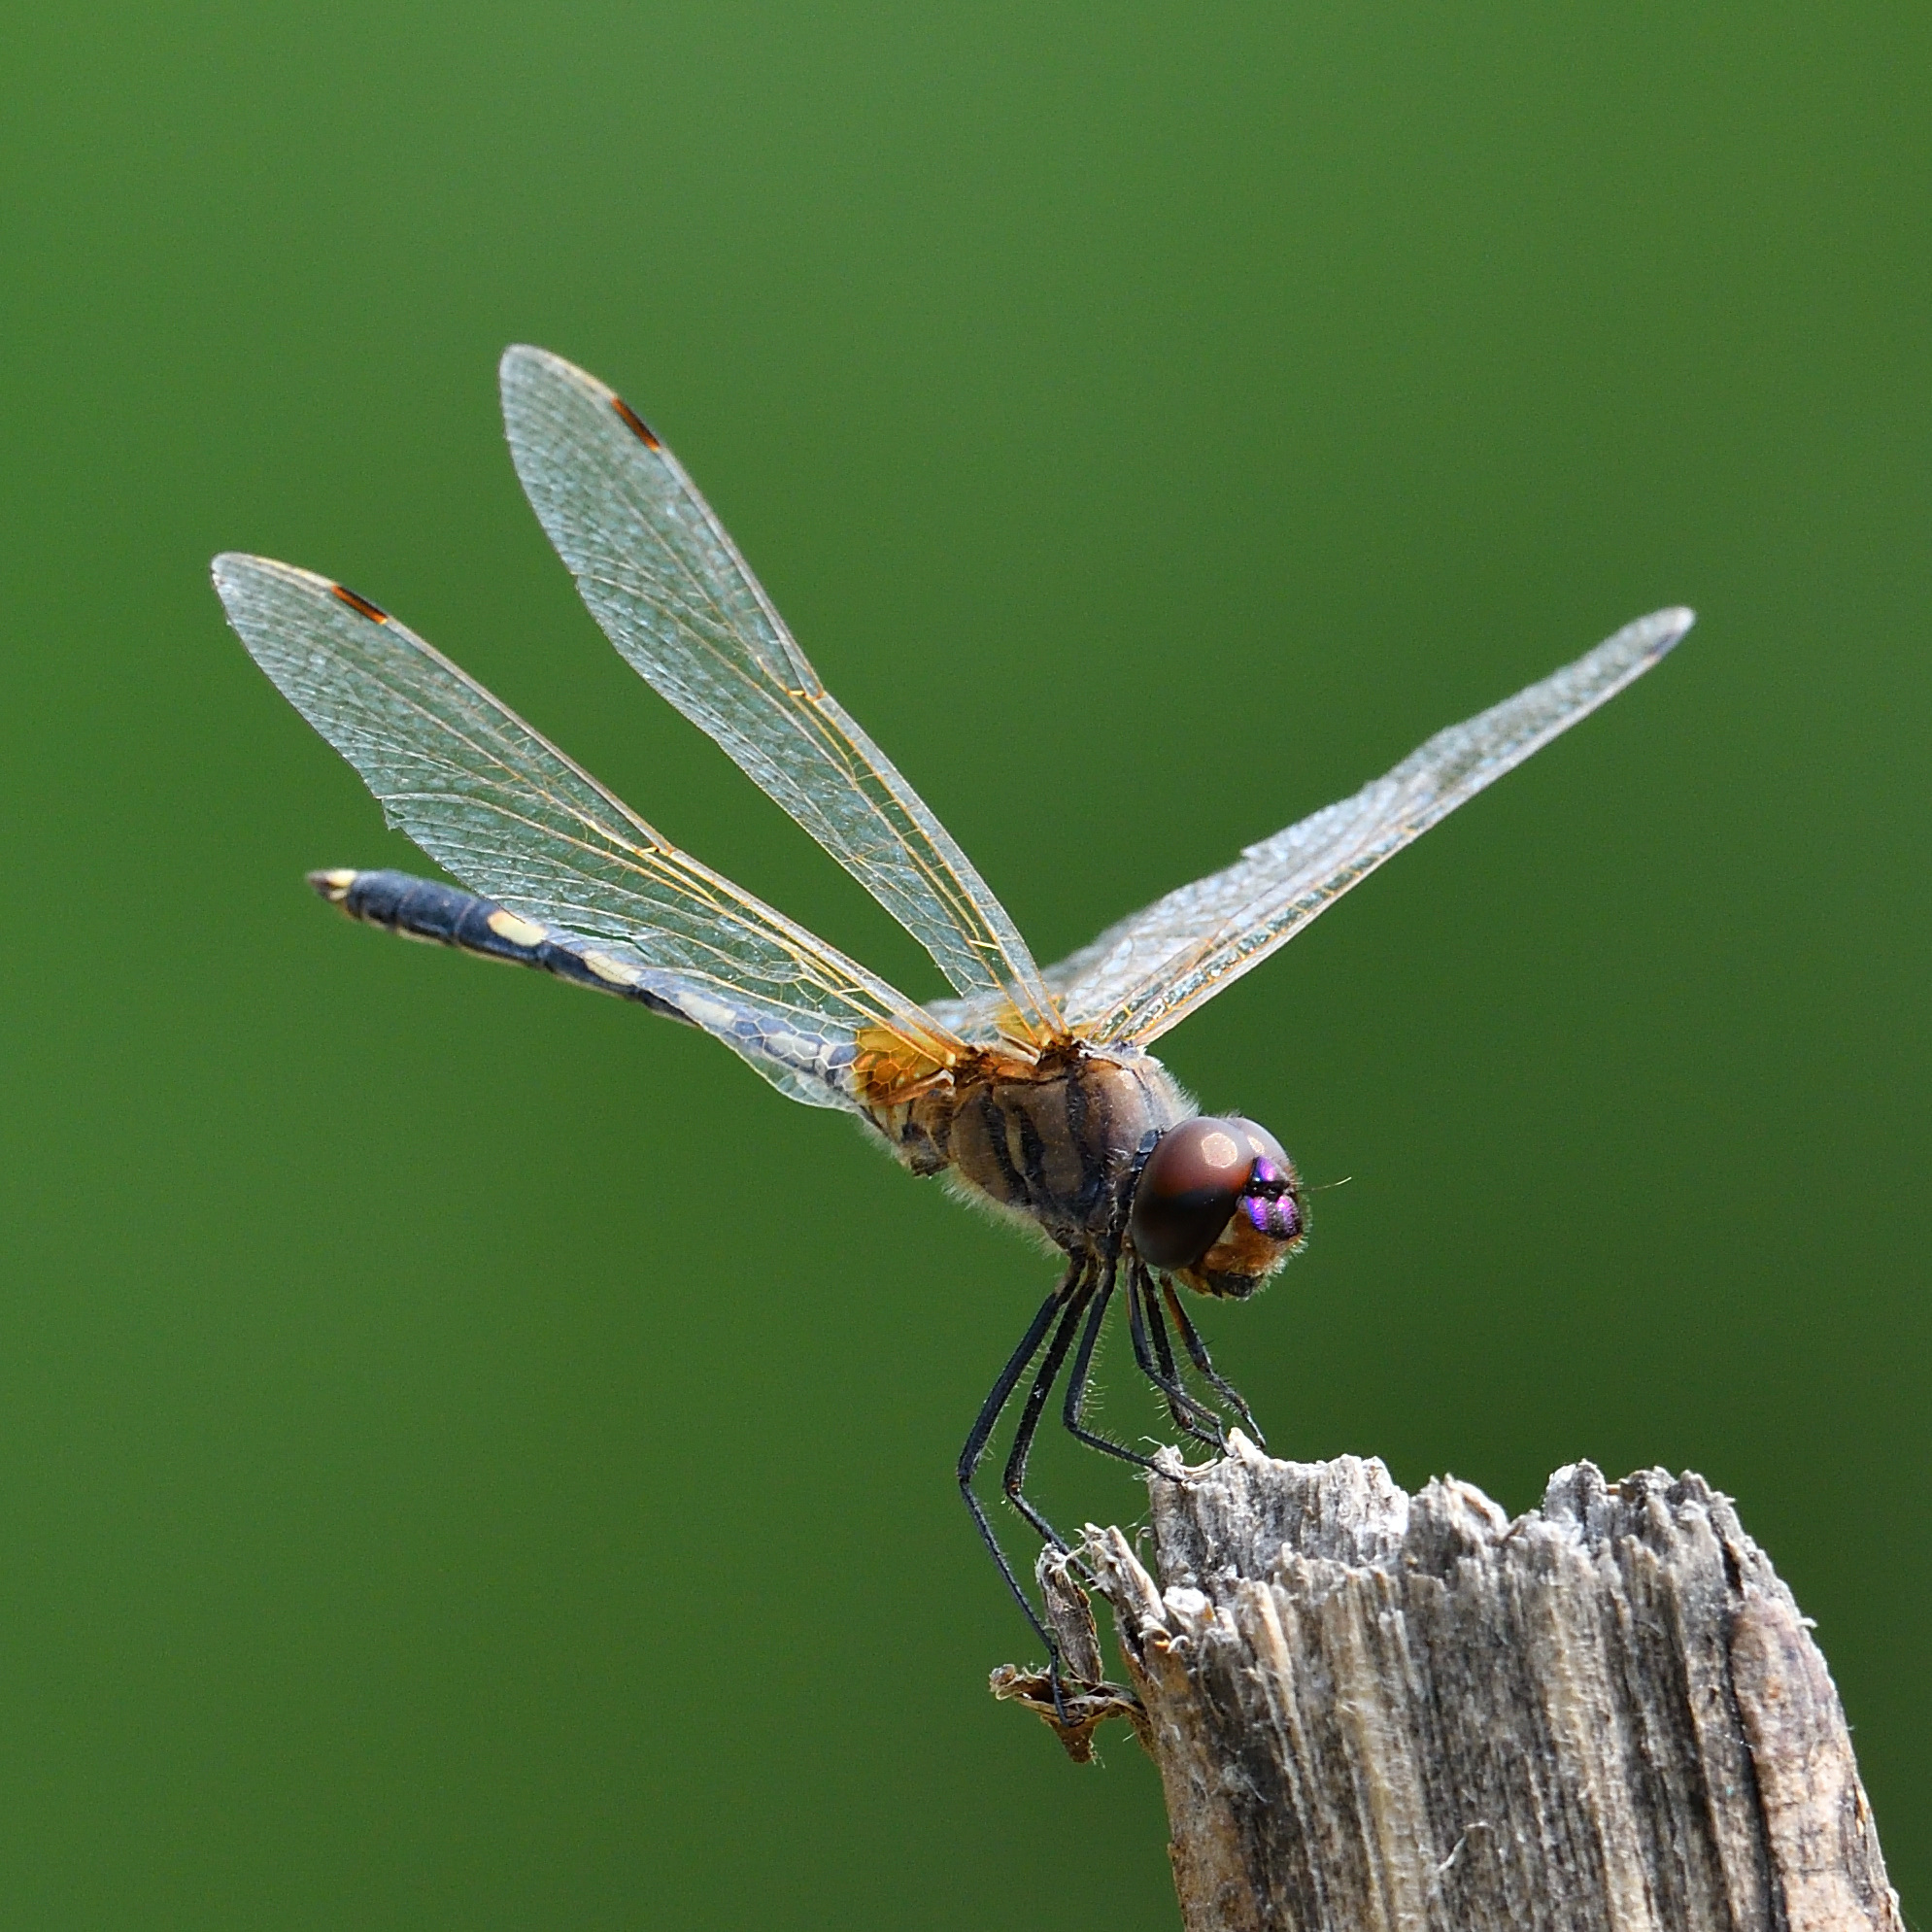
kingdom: Animalia
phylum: Arthropoda
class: Insecta
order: Odonata
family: Libellulidae
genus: Trithemis
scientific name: Trithemis pallidinervis
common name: Dancing dropwing
